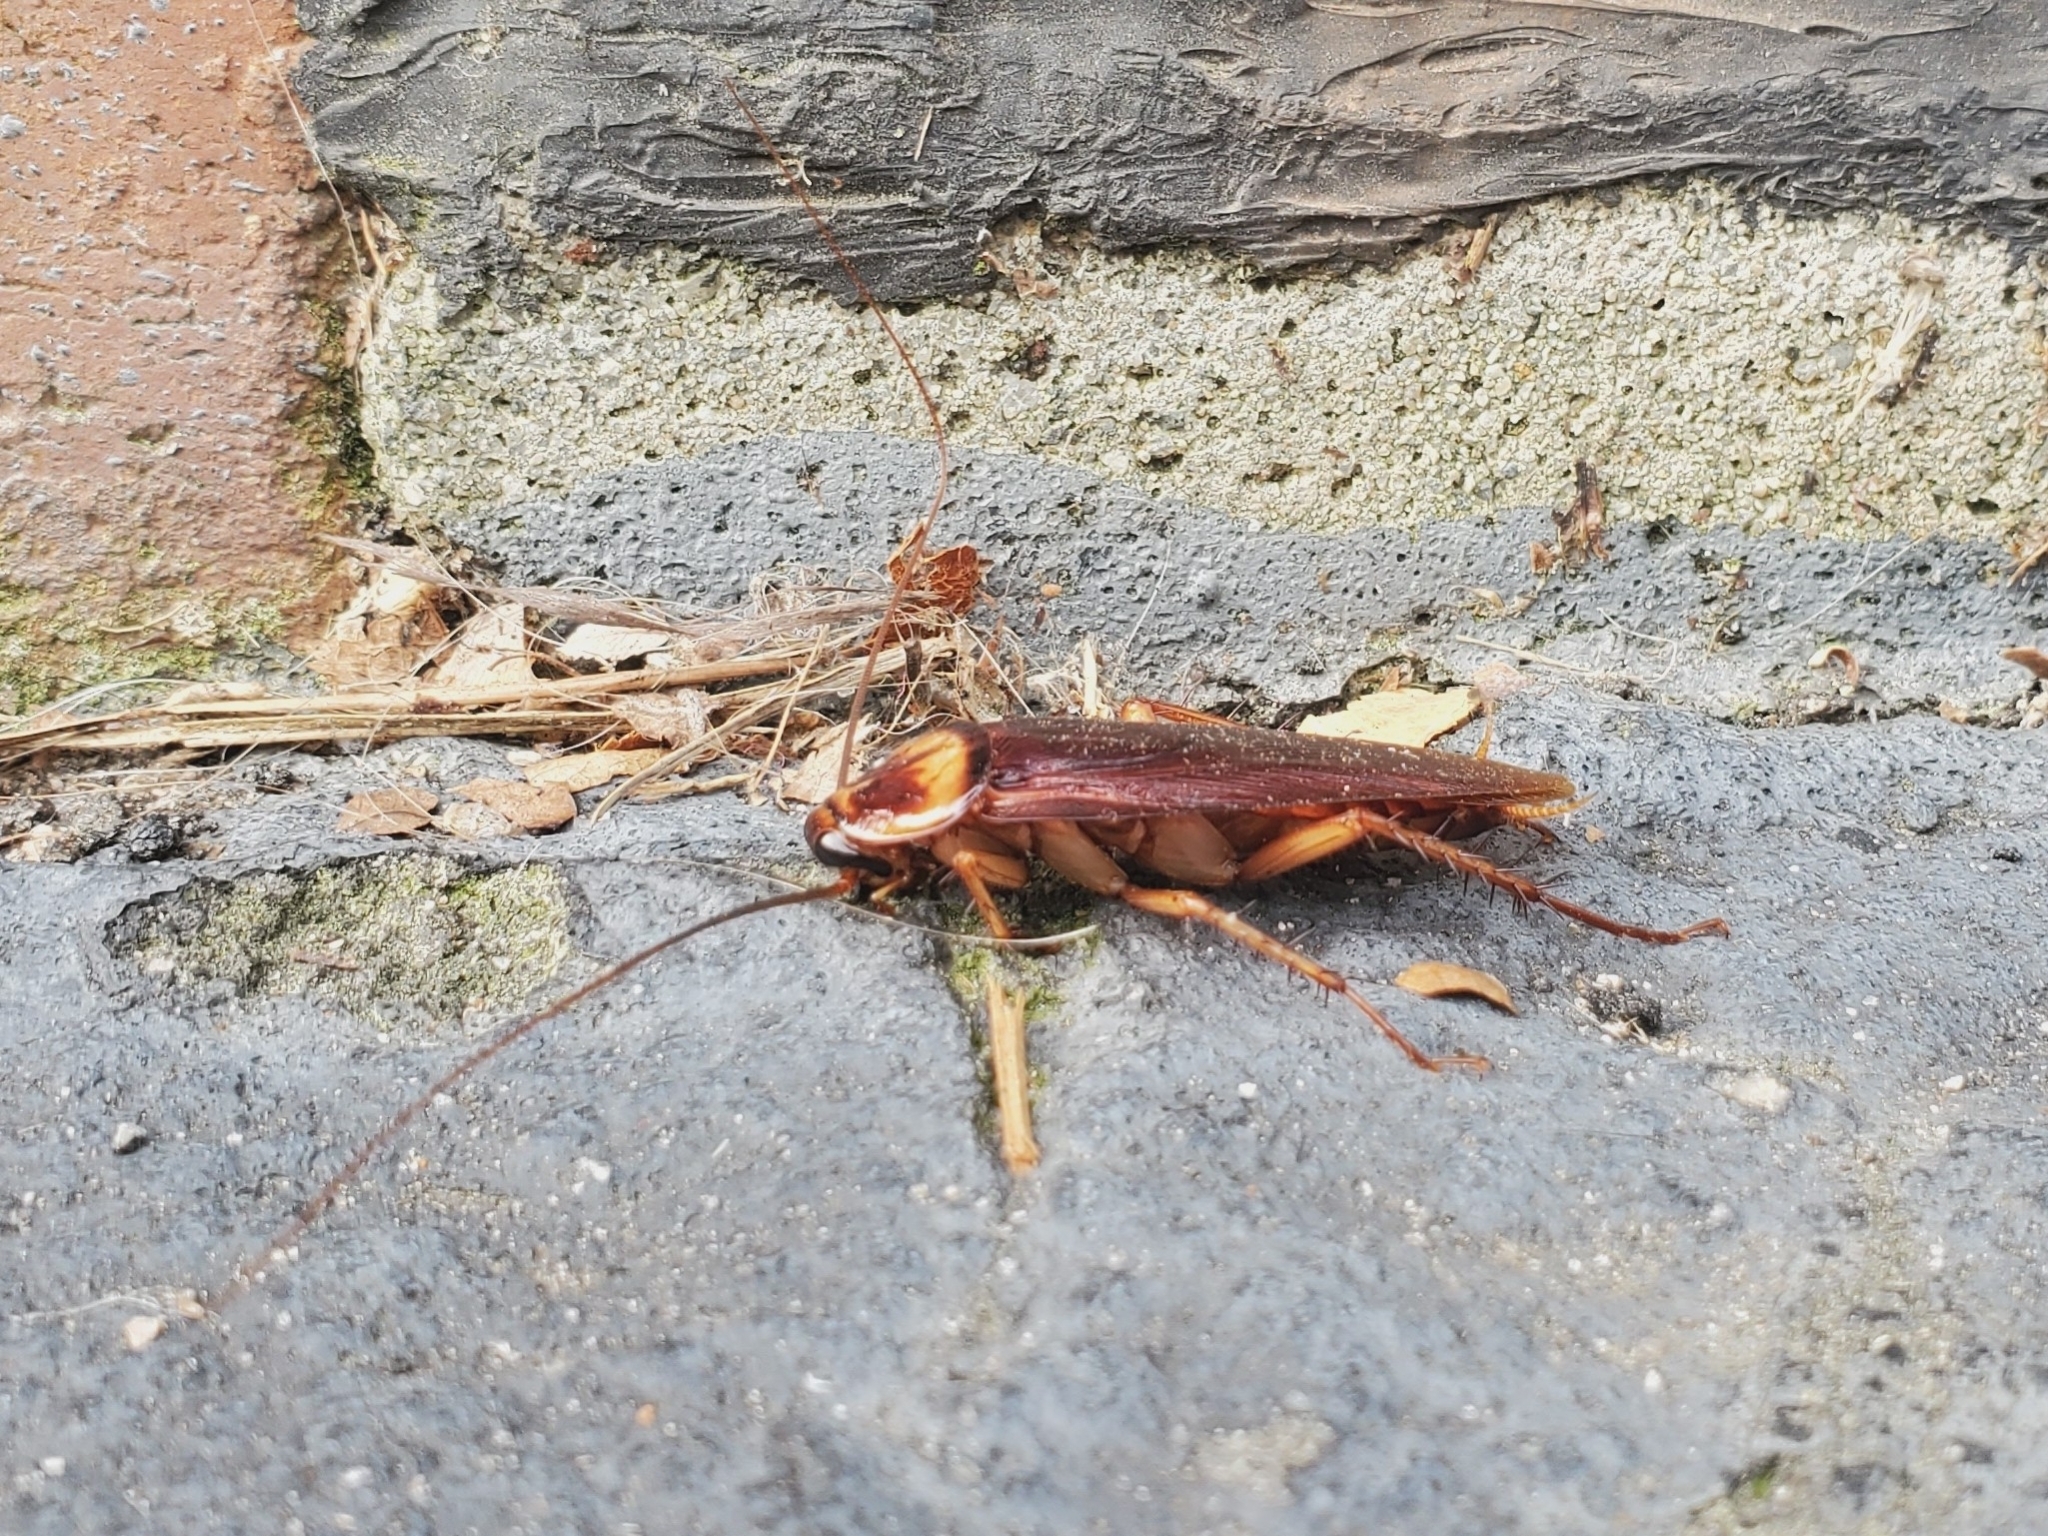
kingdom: Animalia
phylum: Arthropoda
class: Insecta
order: Blattodea
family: Blattidae
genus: Periplaneta
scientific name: Periplaneta americana
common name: American cockroach
